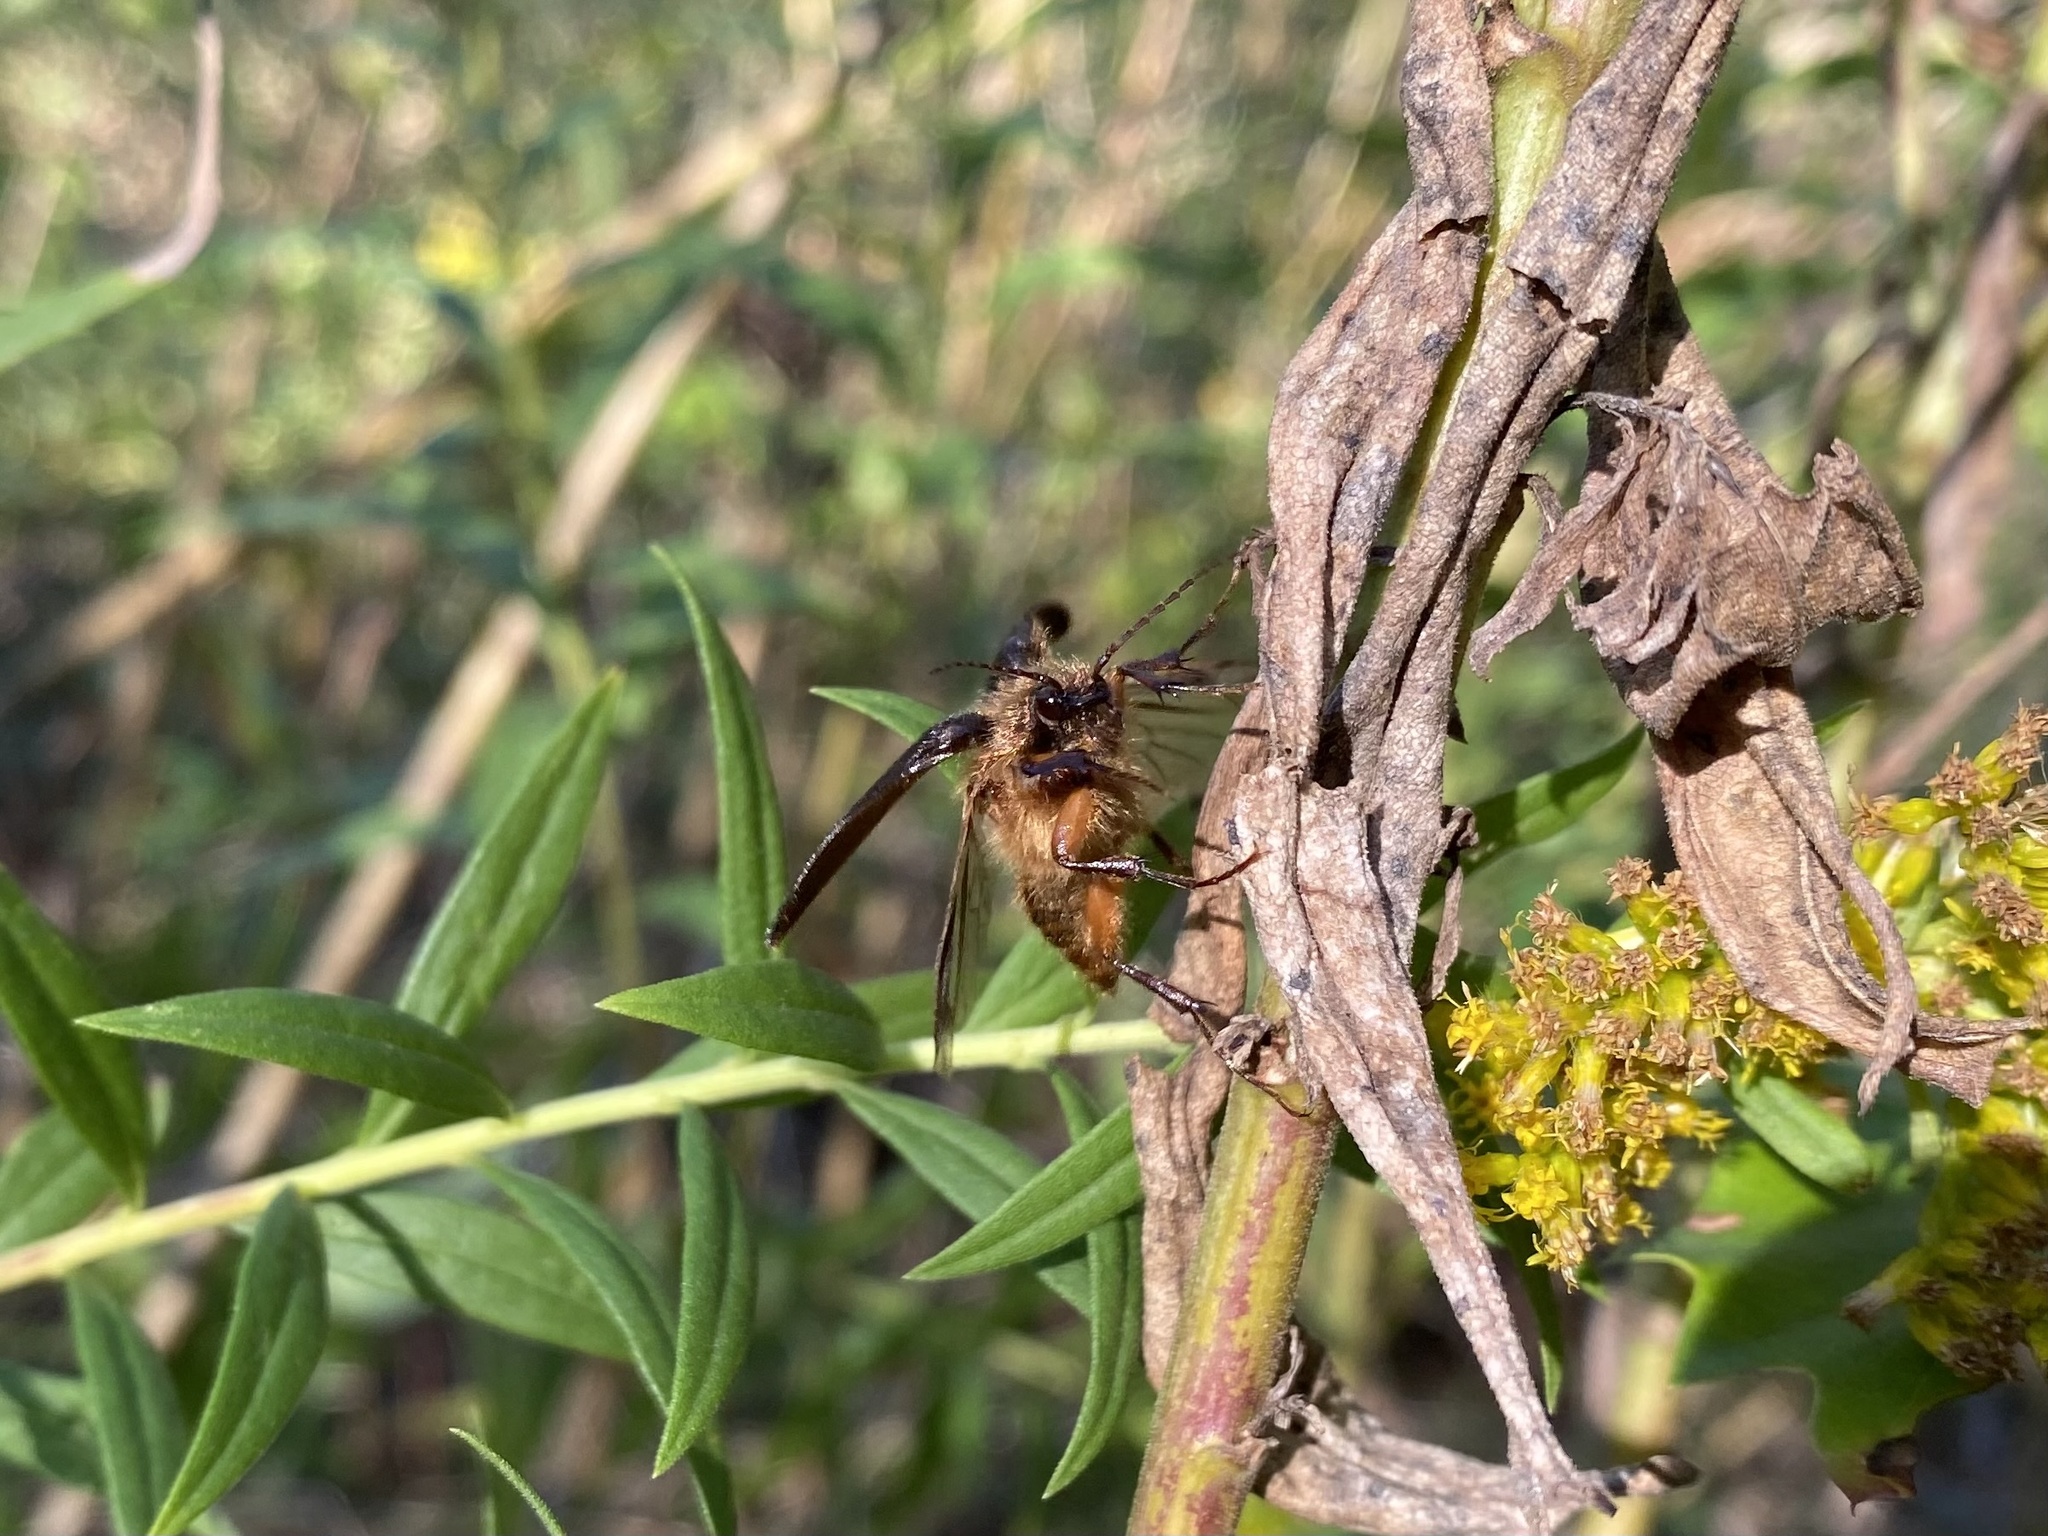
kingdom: Animalia
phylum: Arthropoda
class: Insecta
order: Coleoptera
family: Elateridae
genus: Scaptolenus
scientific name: Scaptolenus
